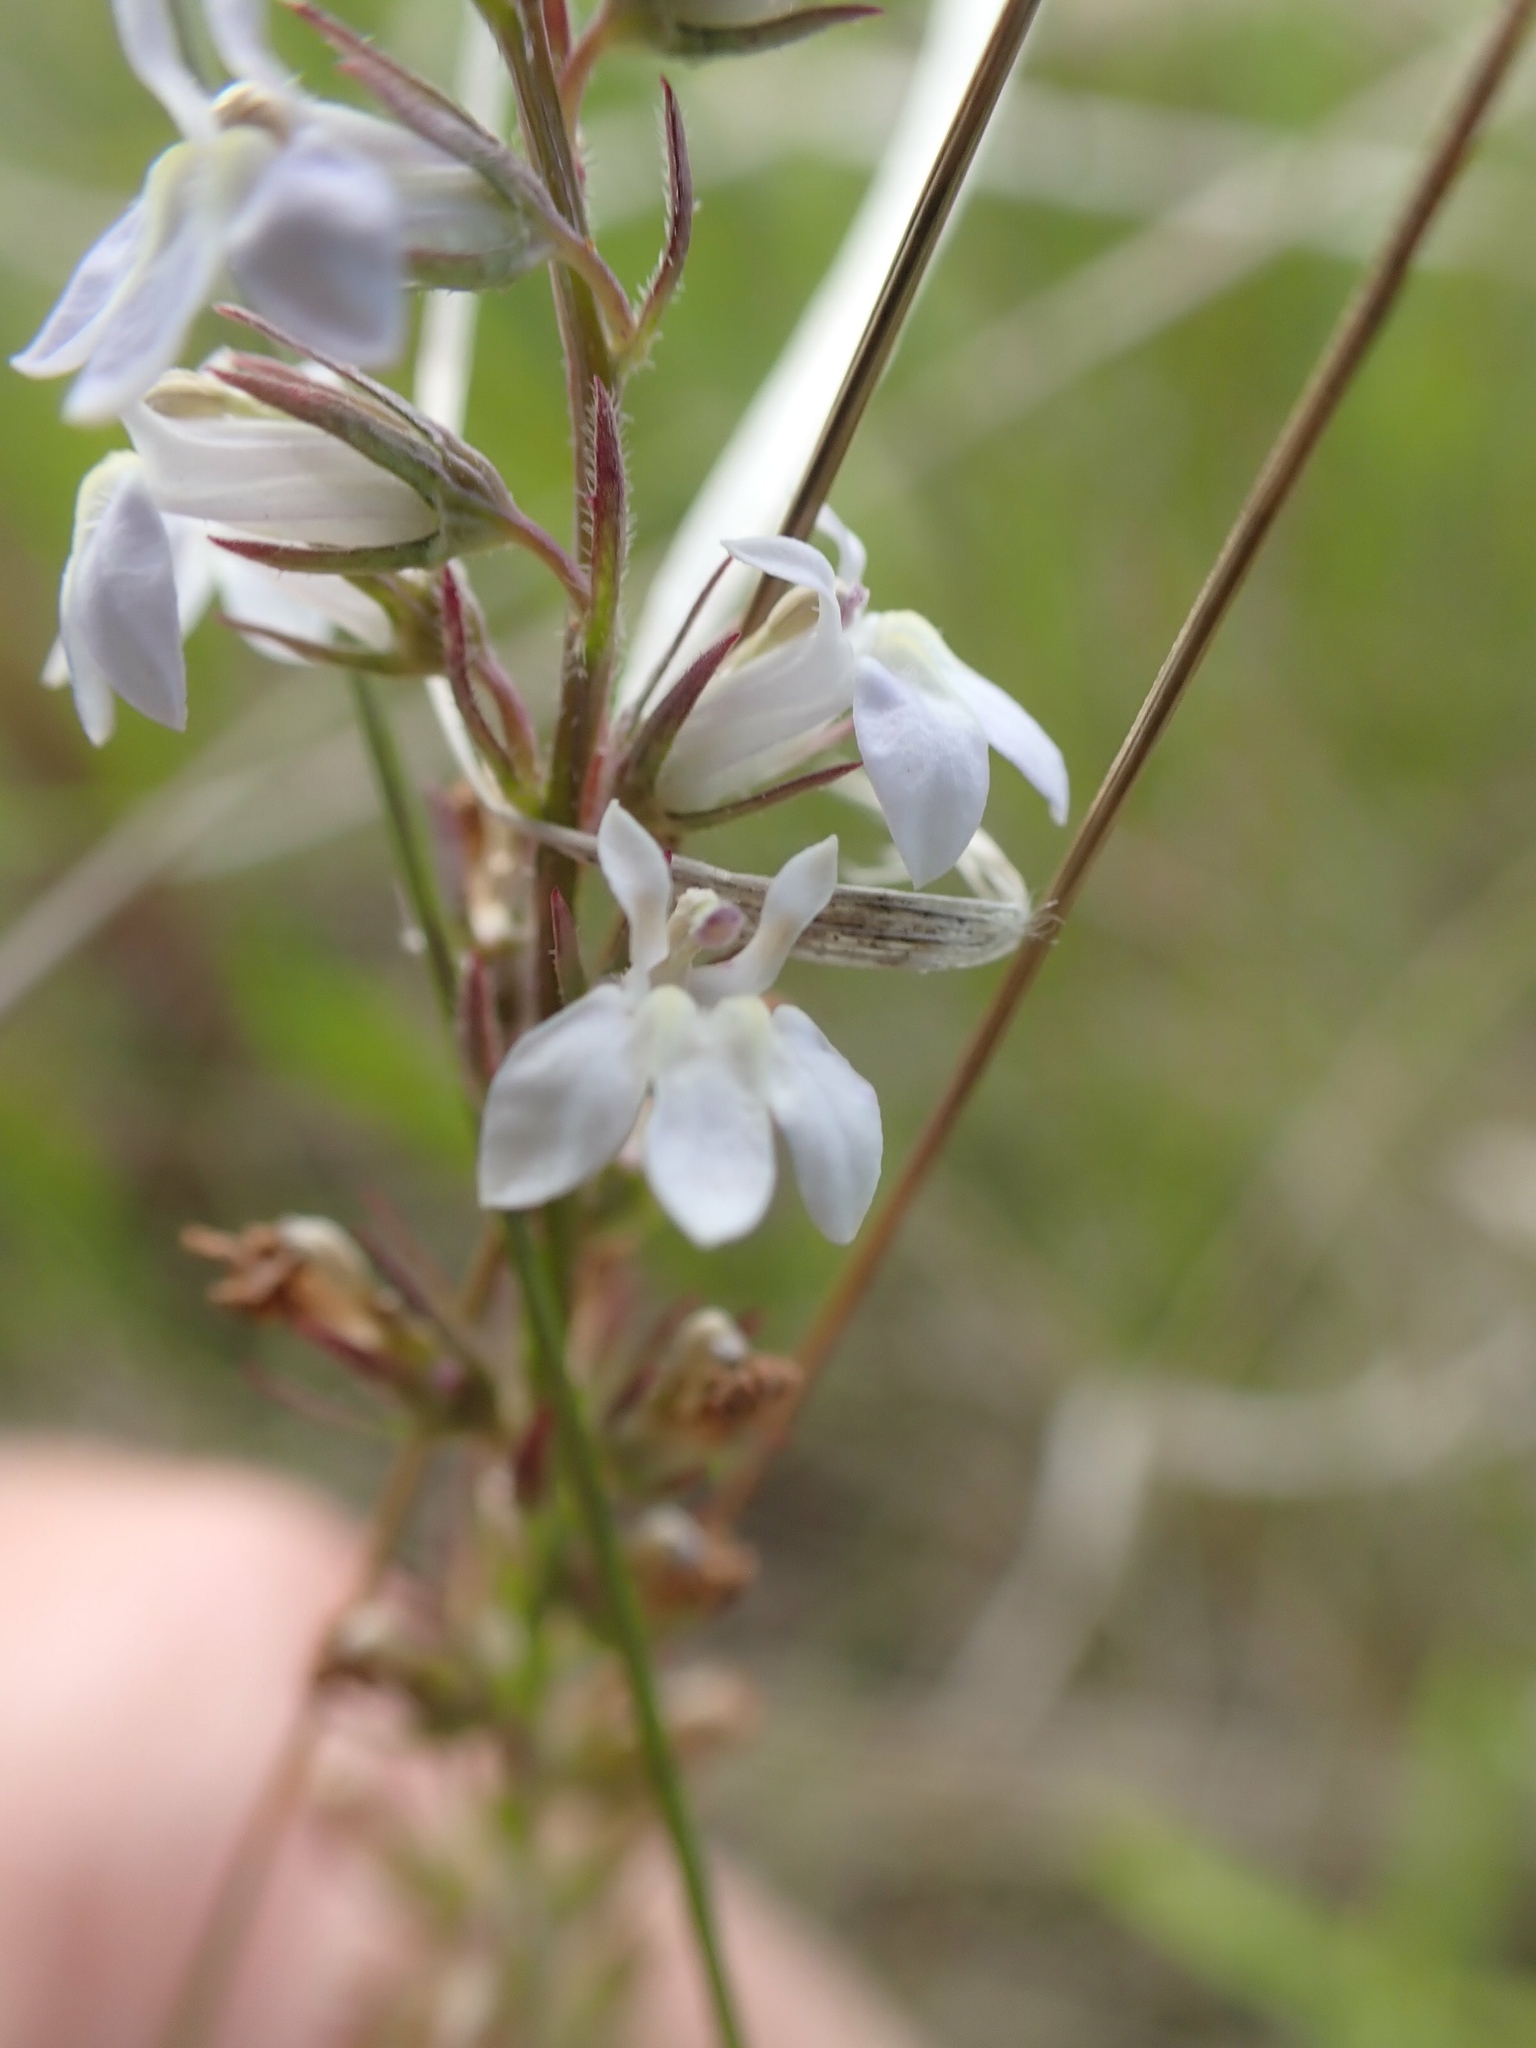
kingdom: Plantae
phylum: Tracheophyta
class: Magnoliopsida
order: Asterales
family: Campanulaceae
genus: Lobelia
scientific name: Lobelia spicata
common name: Pale-spike lobelia
